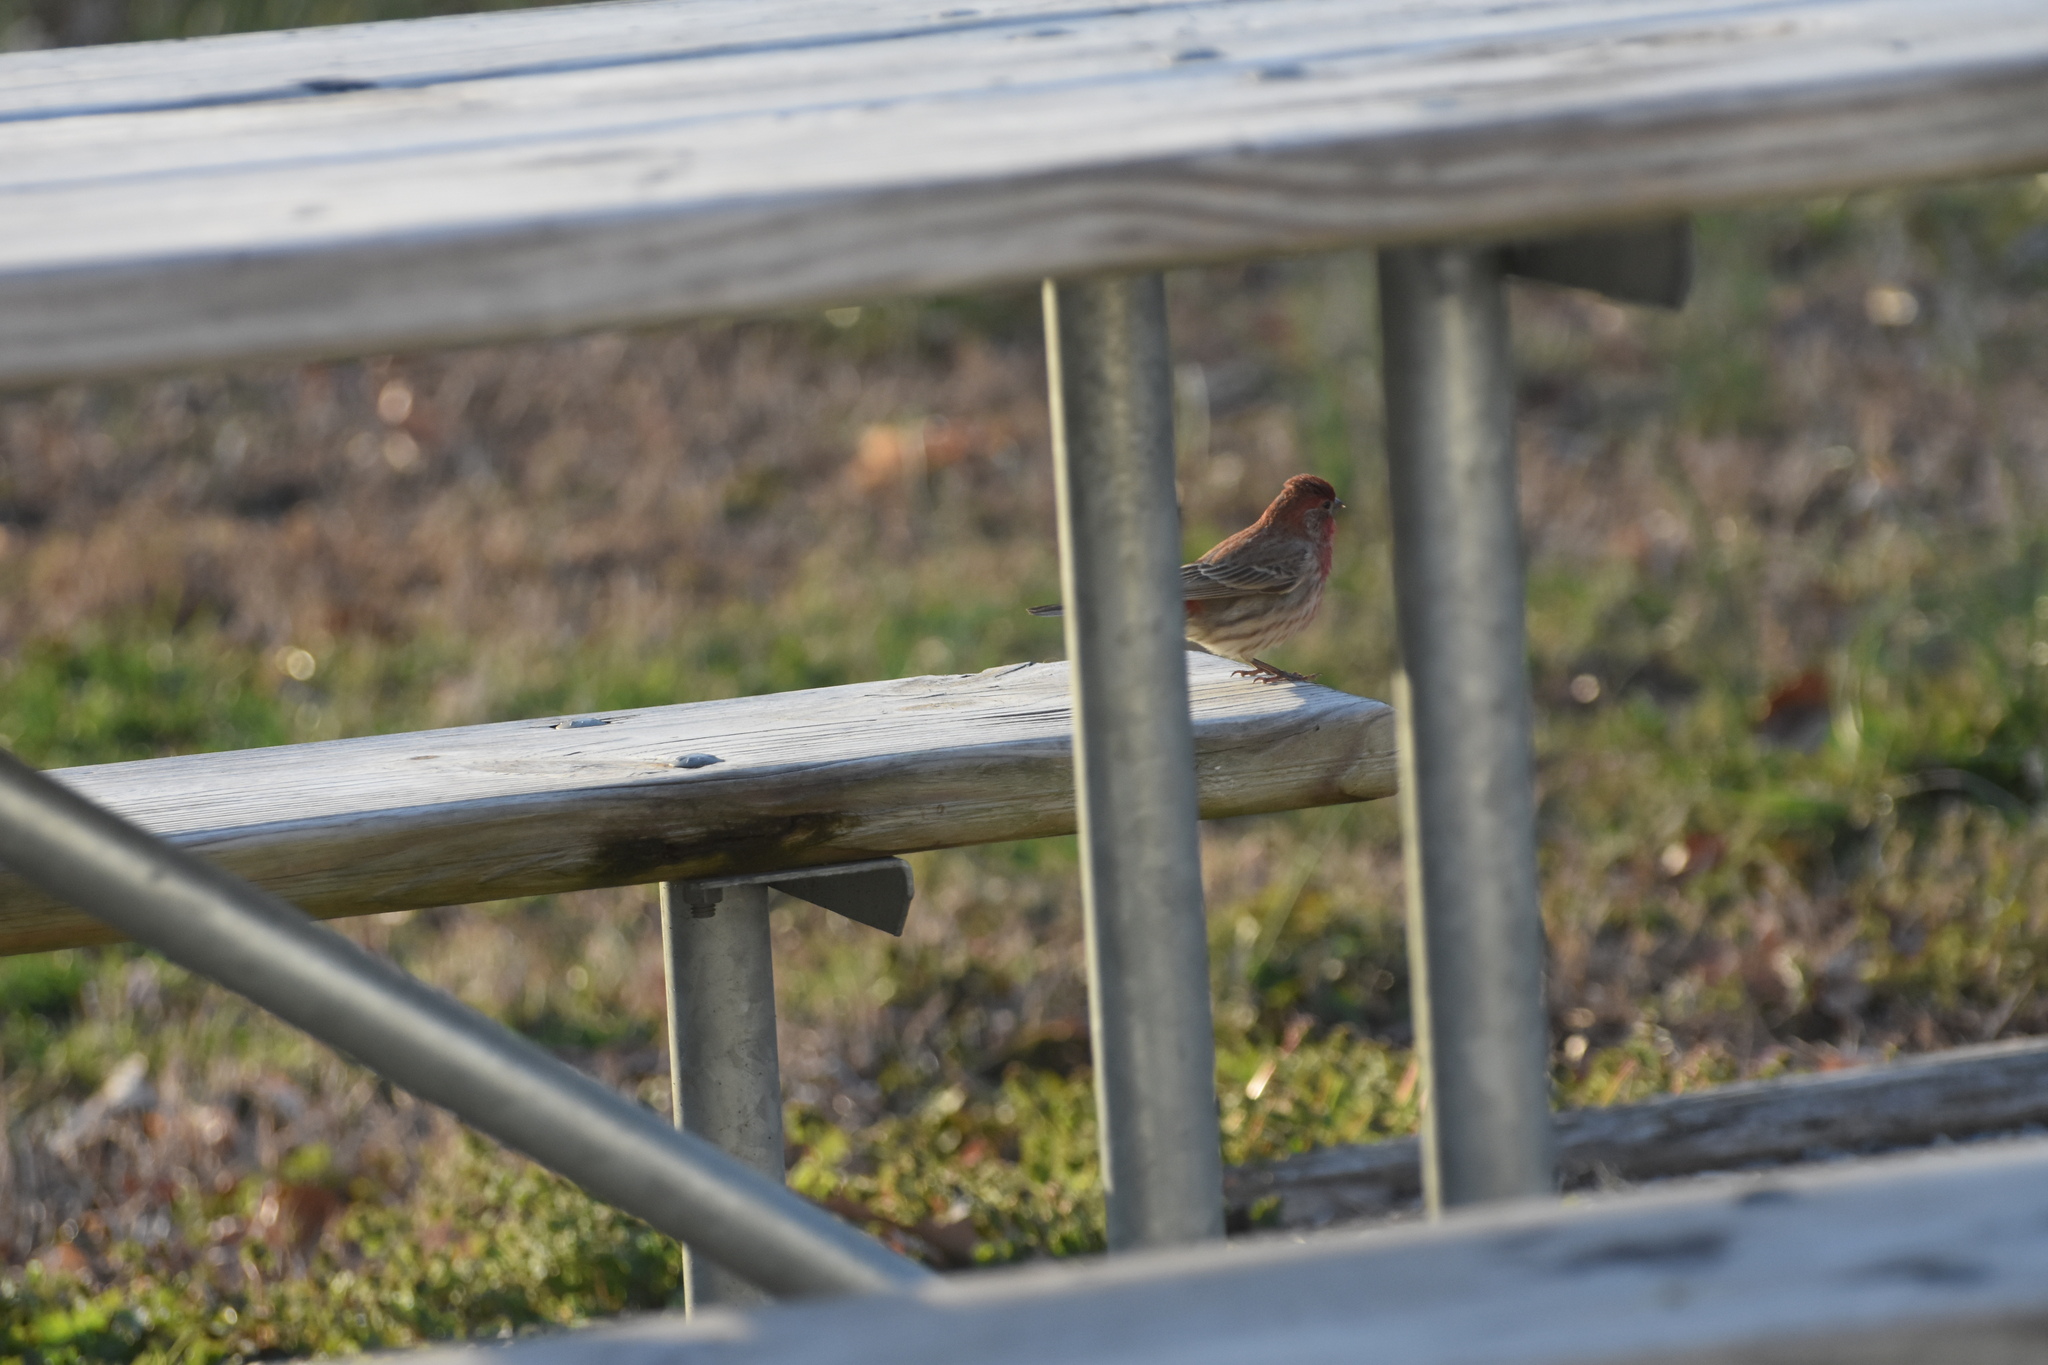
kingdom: Animalia
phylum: Chordata
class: Aves
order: Passeriformes
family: Fringillidae
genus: Haemorhous
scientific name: Haemorhous mexicanus
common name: House finch
